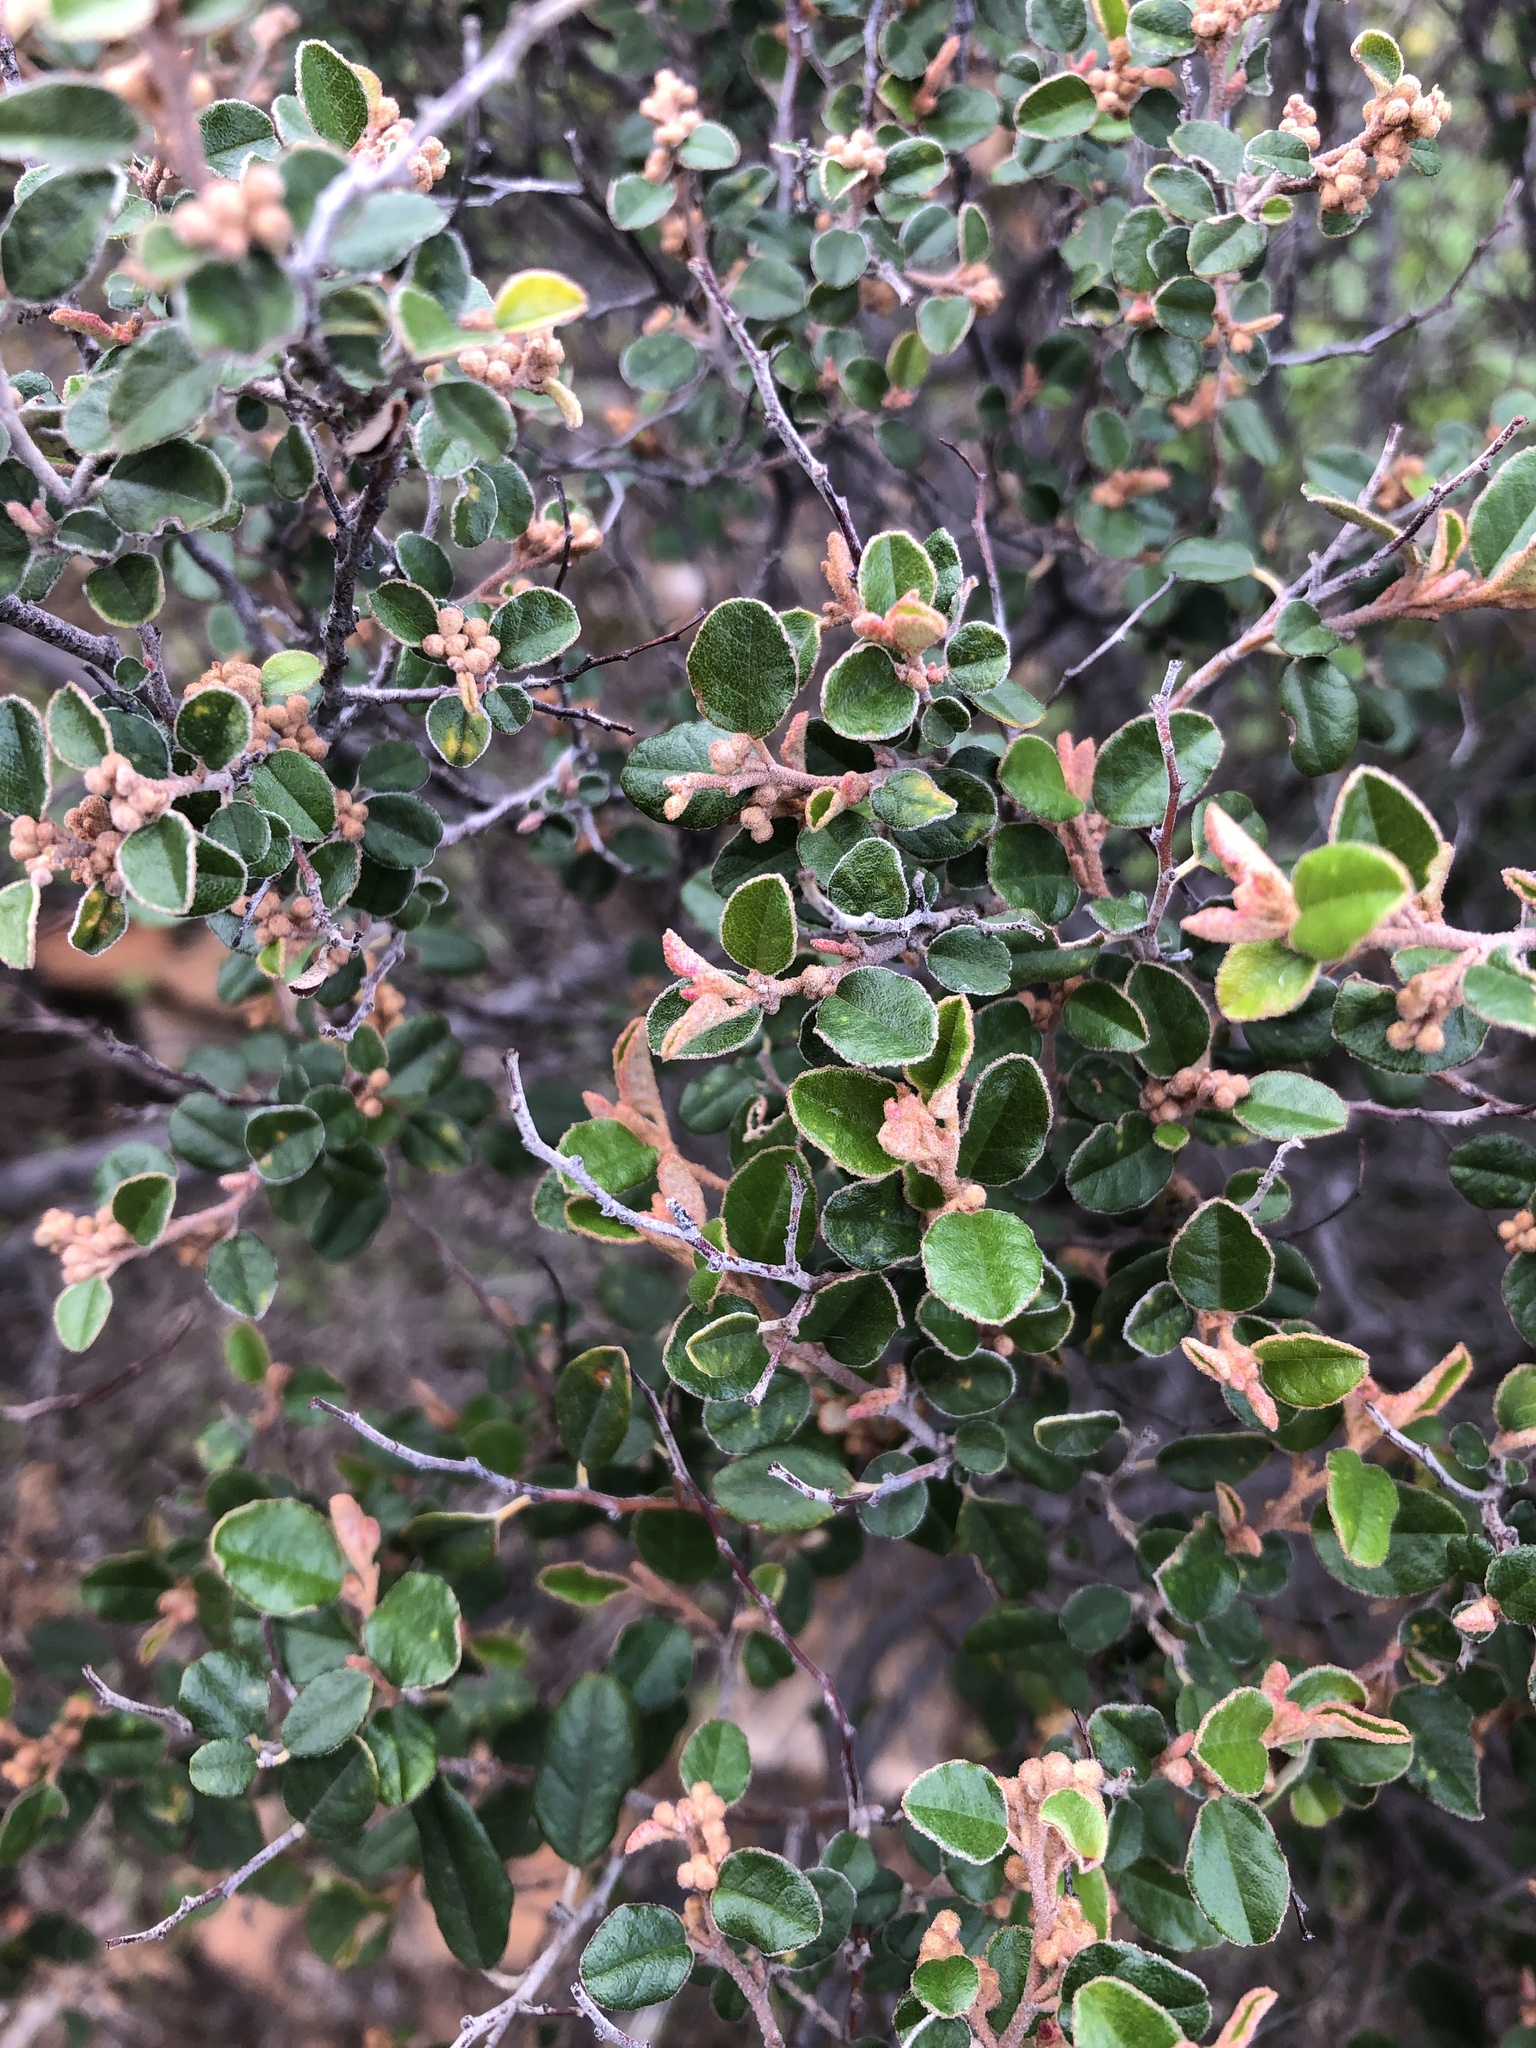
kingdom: Plantae
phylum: Tracheophyta
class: Magnoliopsida
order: Rosales
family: Rhamnaceae
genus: Pomaderris
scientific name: Pomaderris paniculosa
